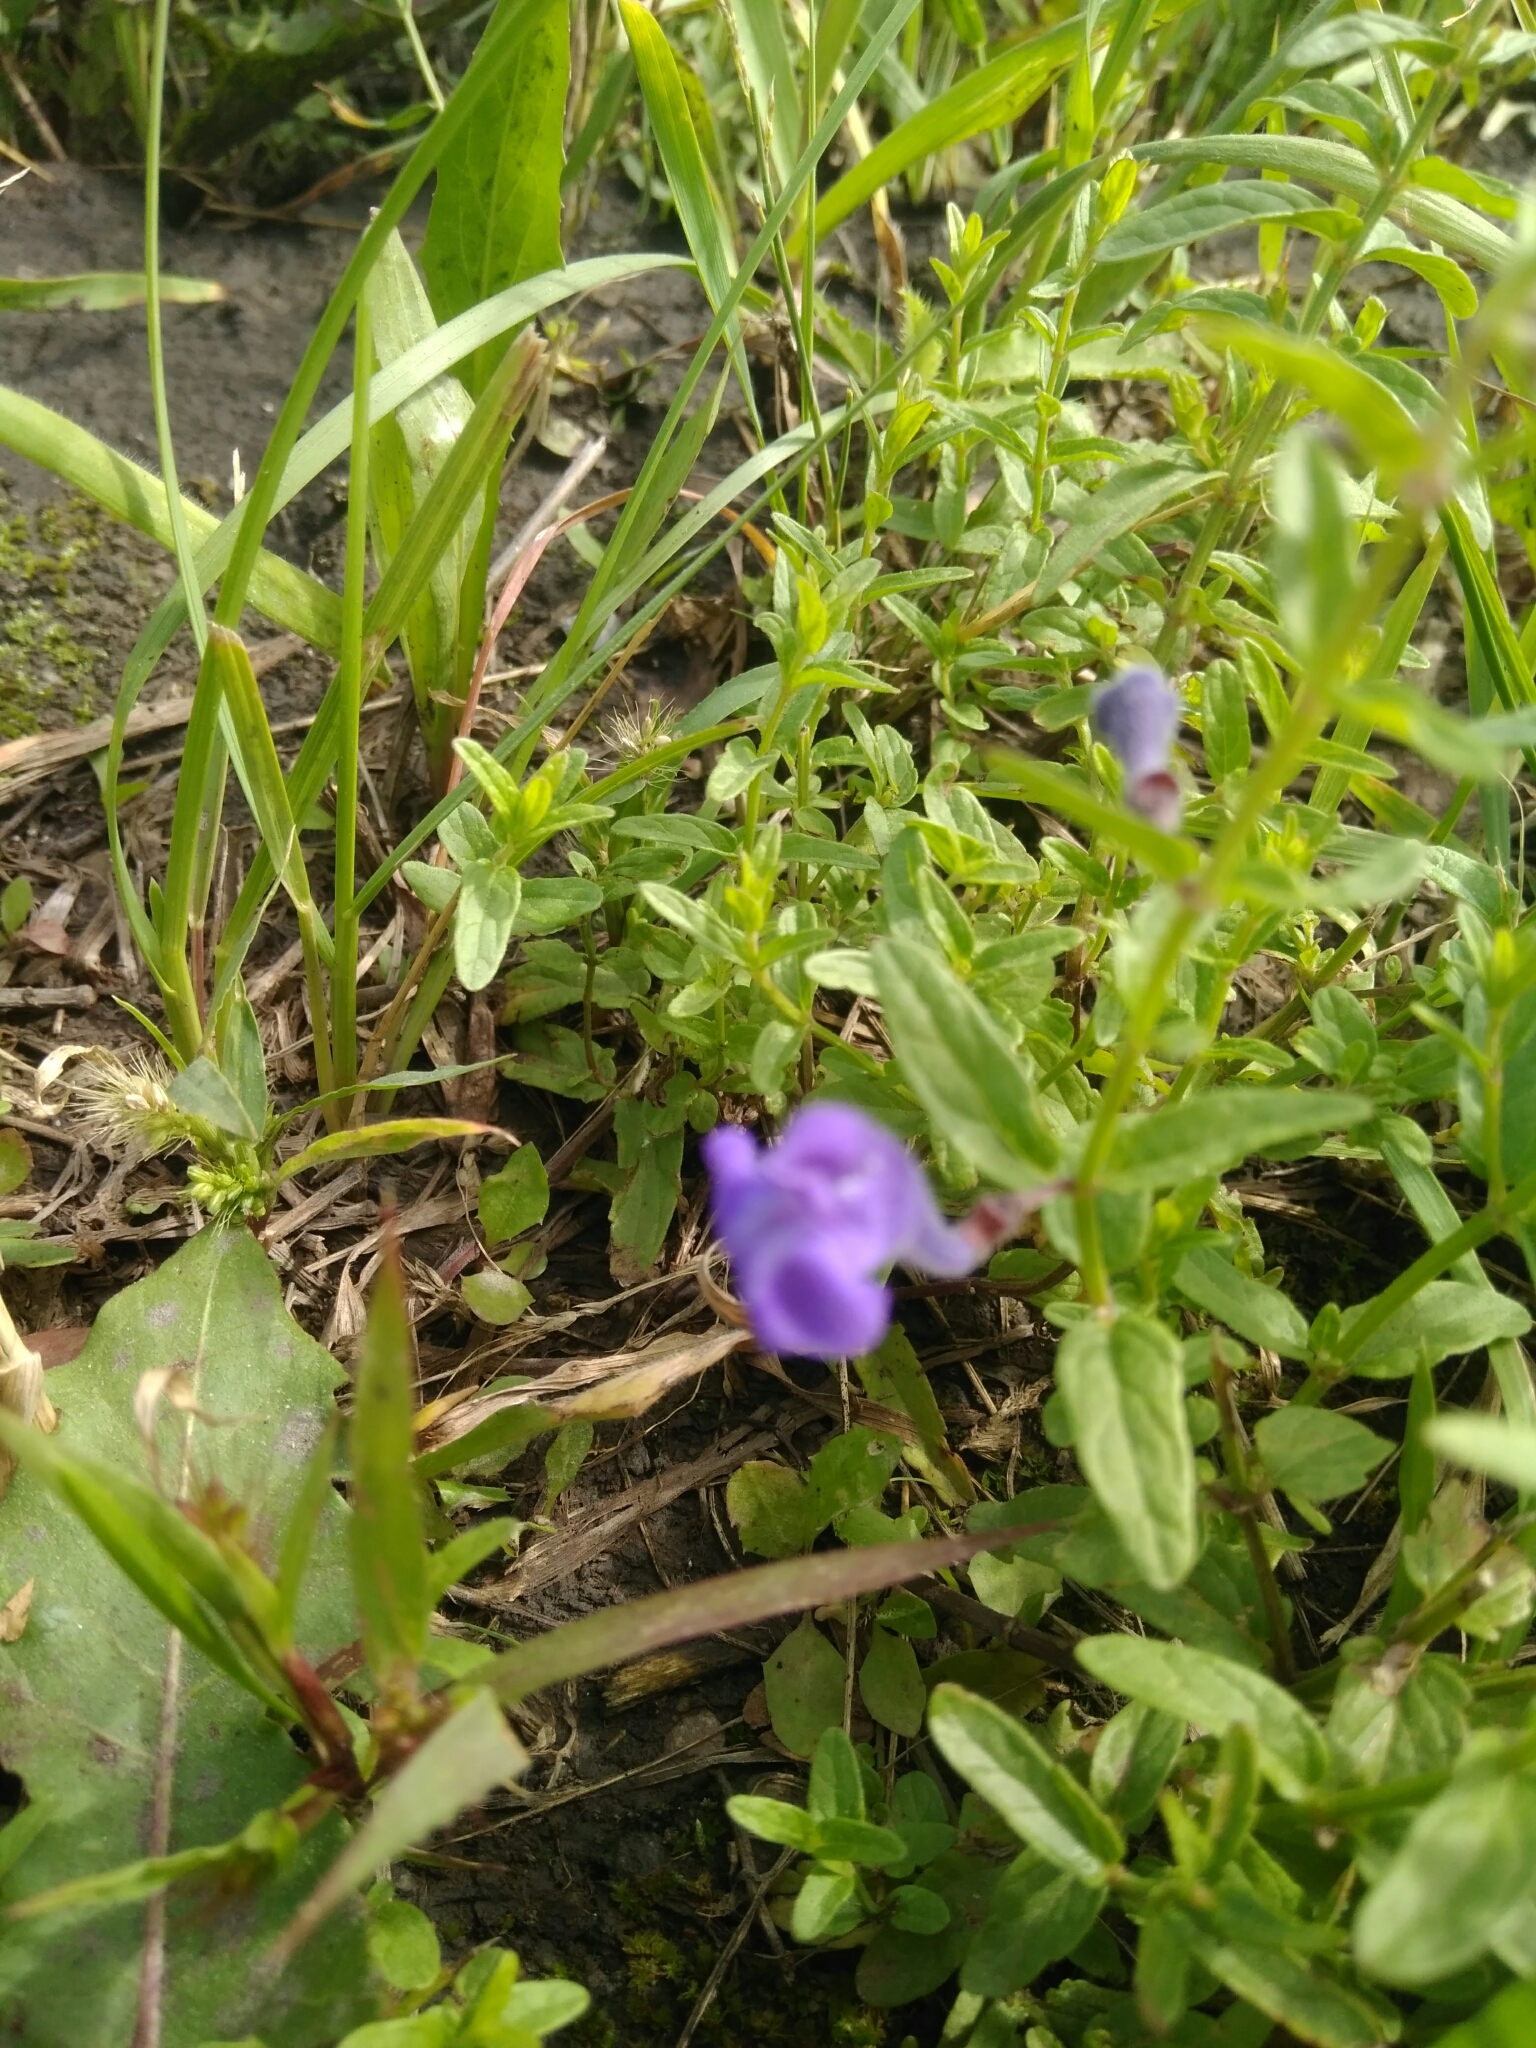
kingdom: Plantae
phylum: Tracheophyta
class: Magnoliopsida
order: Lamiales
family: Lamiaceae
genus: Scutellaria
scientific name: Scutellaria scordiifolia
